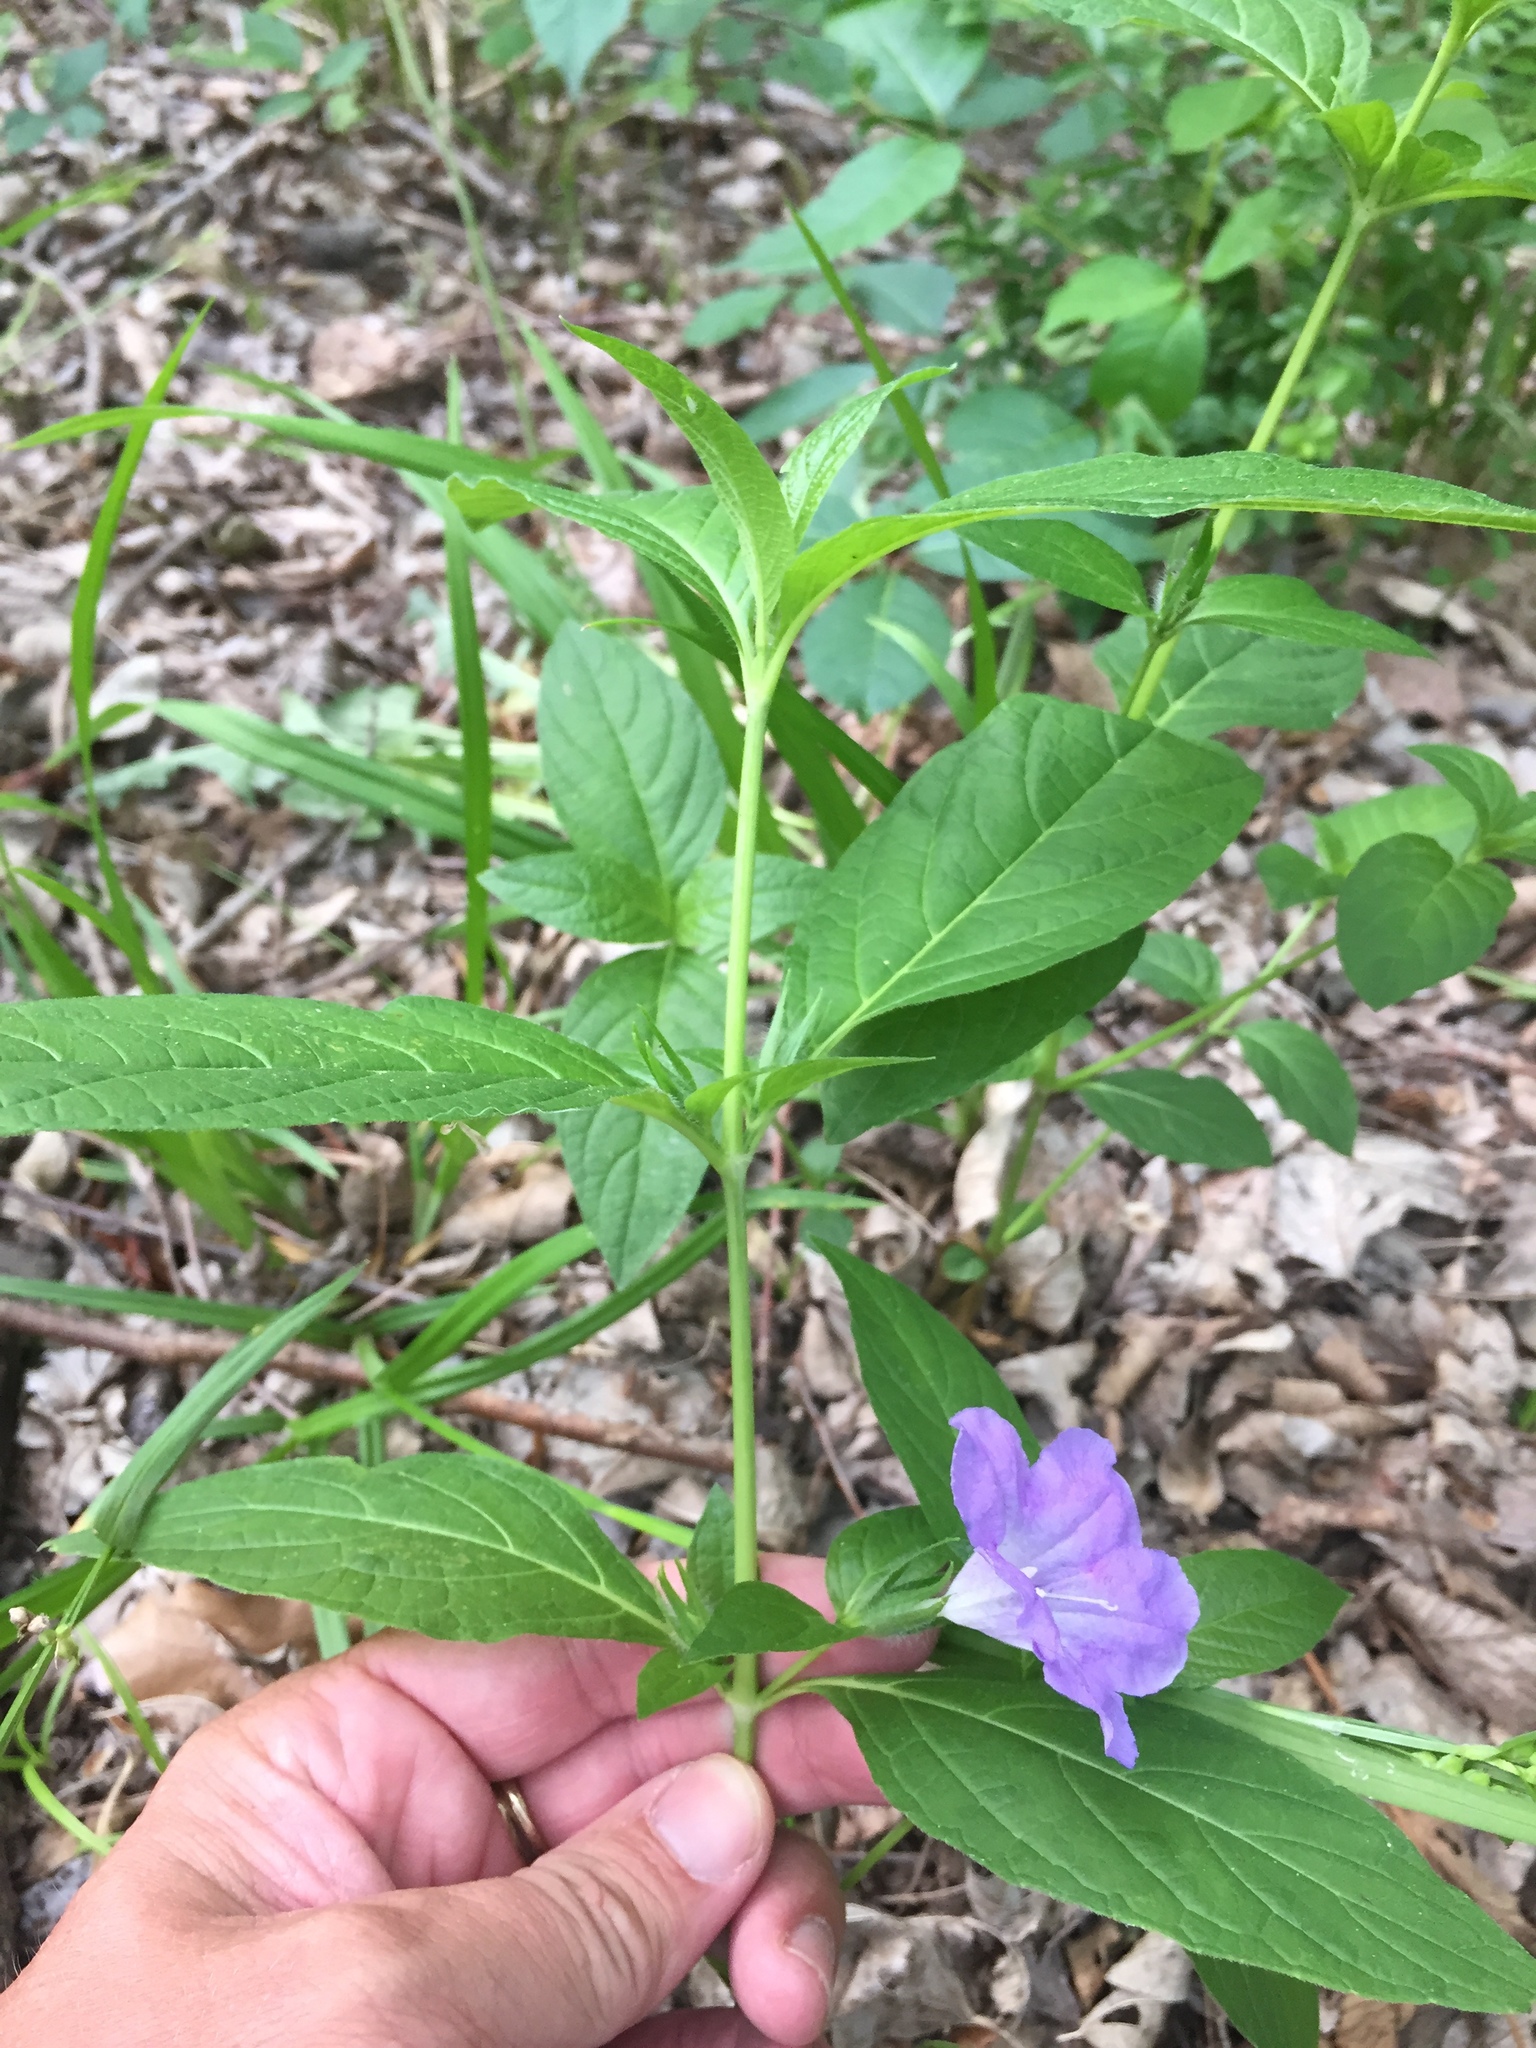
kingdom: Plantae
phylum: Tracheophyta
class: Magnoliopsida
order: Lamiales
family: Acanthaceae
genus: Ruellia
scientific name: Ruellia strepens
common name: Limestone wild petunia
